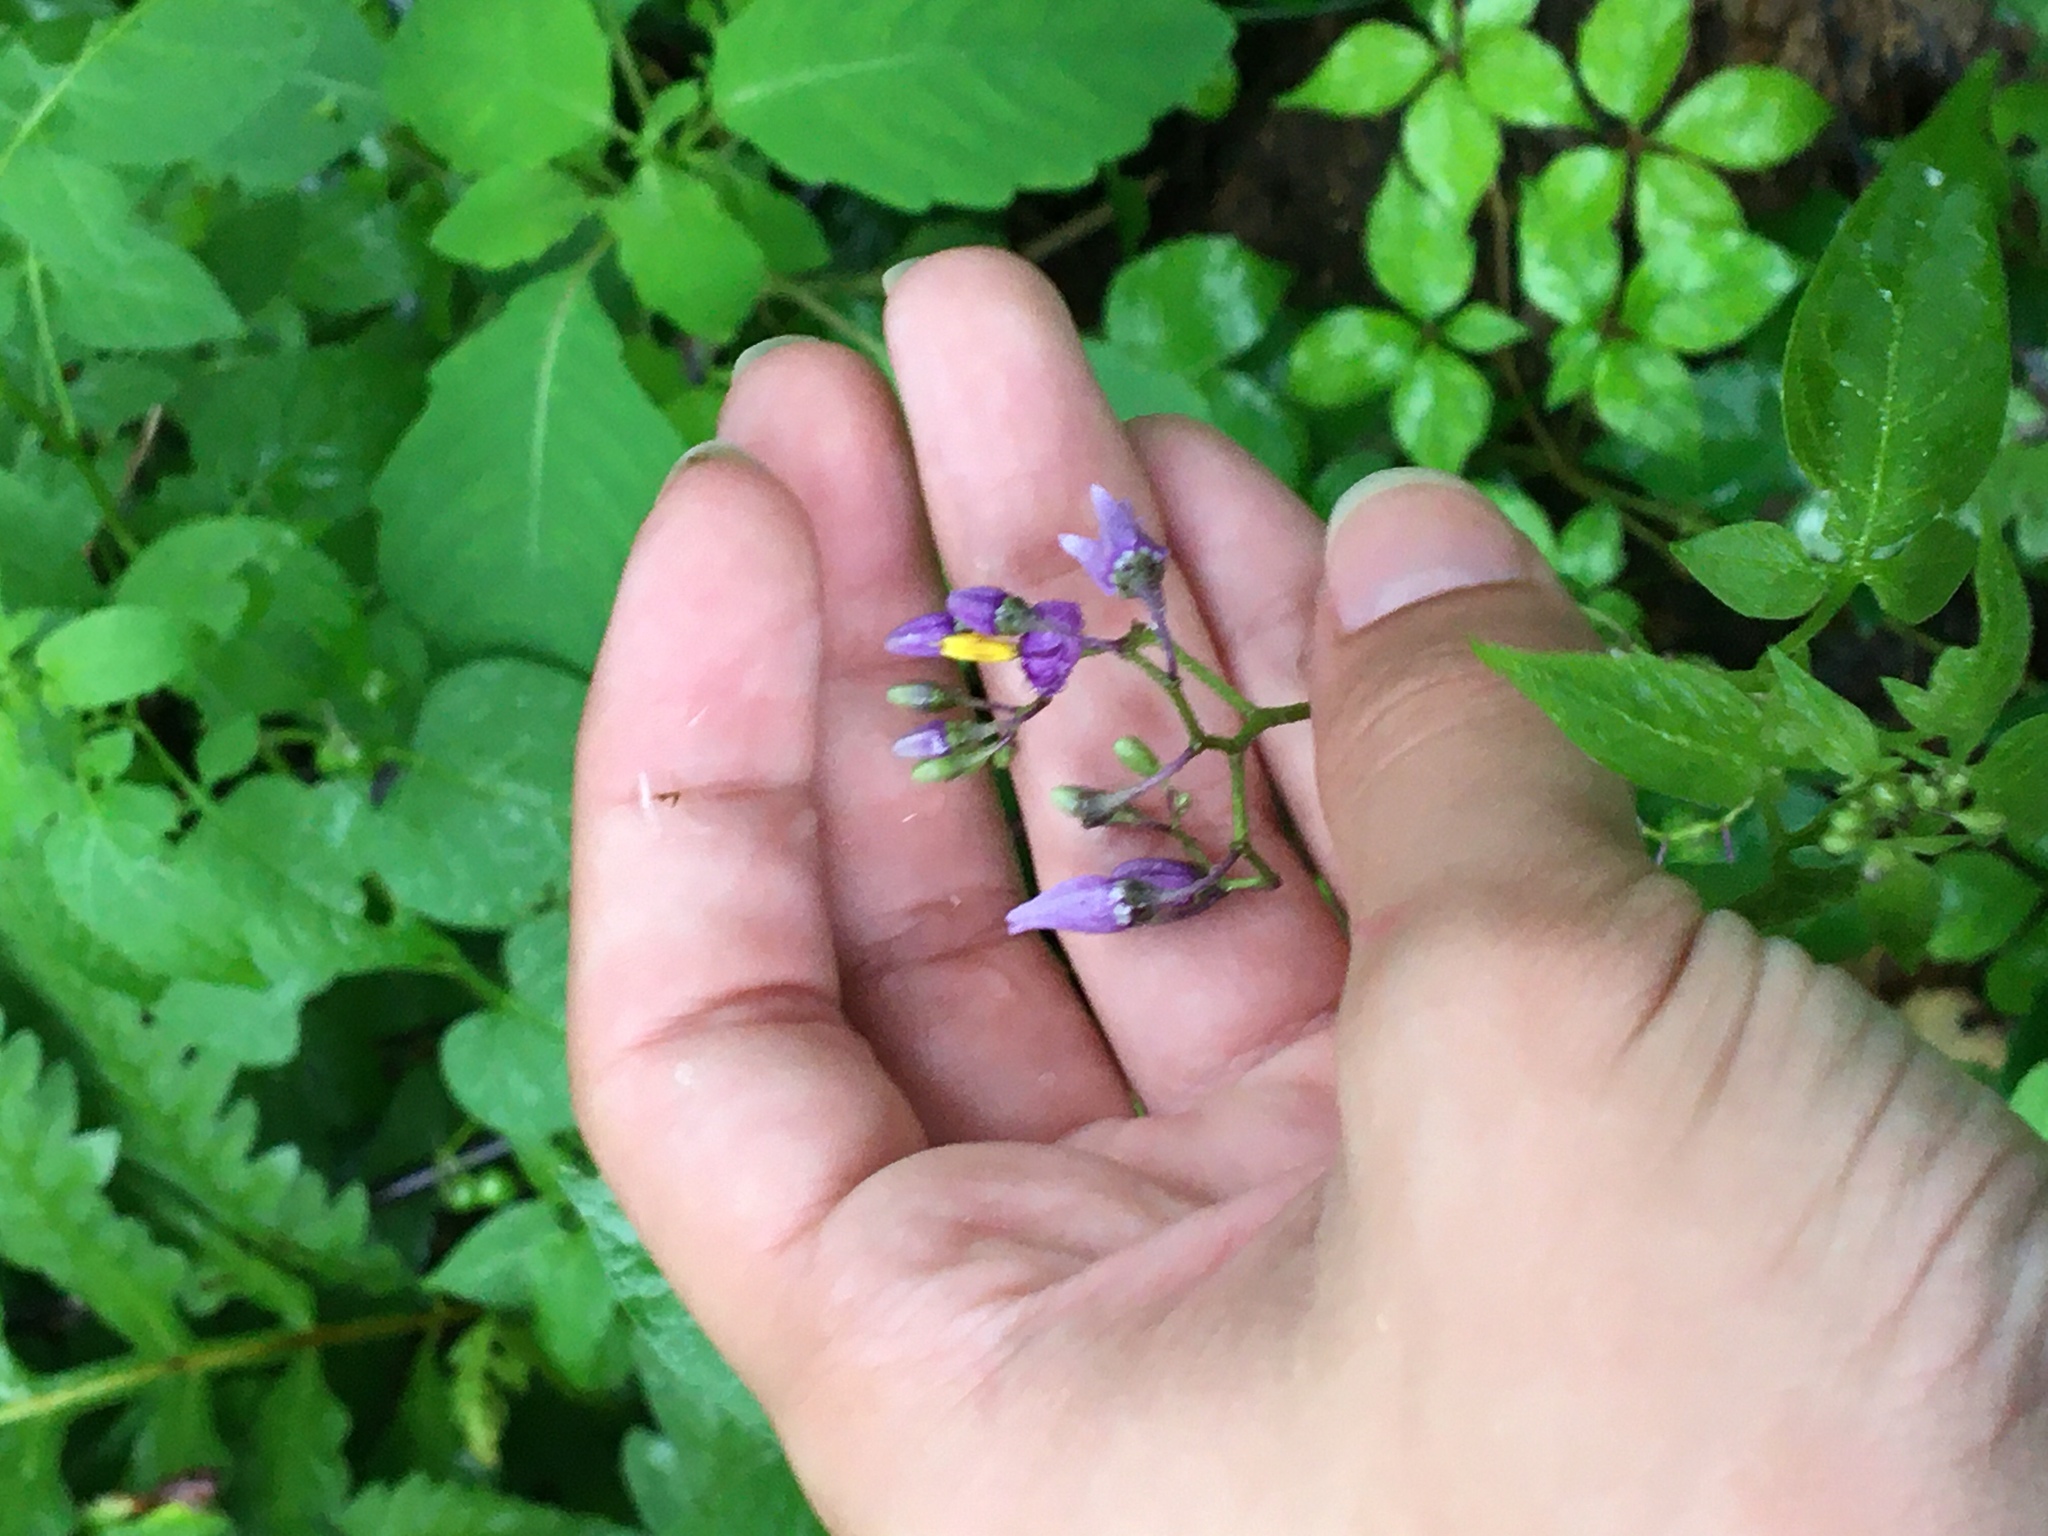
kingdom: Plantae
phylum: Tracheophyta
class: Magnoliopsida
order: Solanales
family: Solanaceae
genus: Solanum
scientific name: Solanum dulcamara
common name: Climbing nightshade
